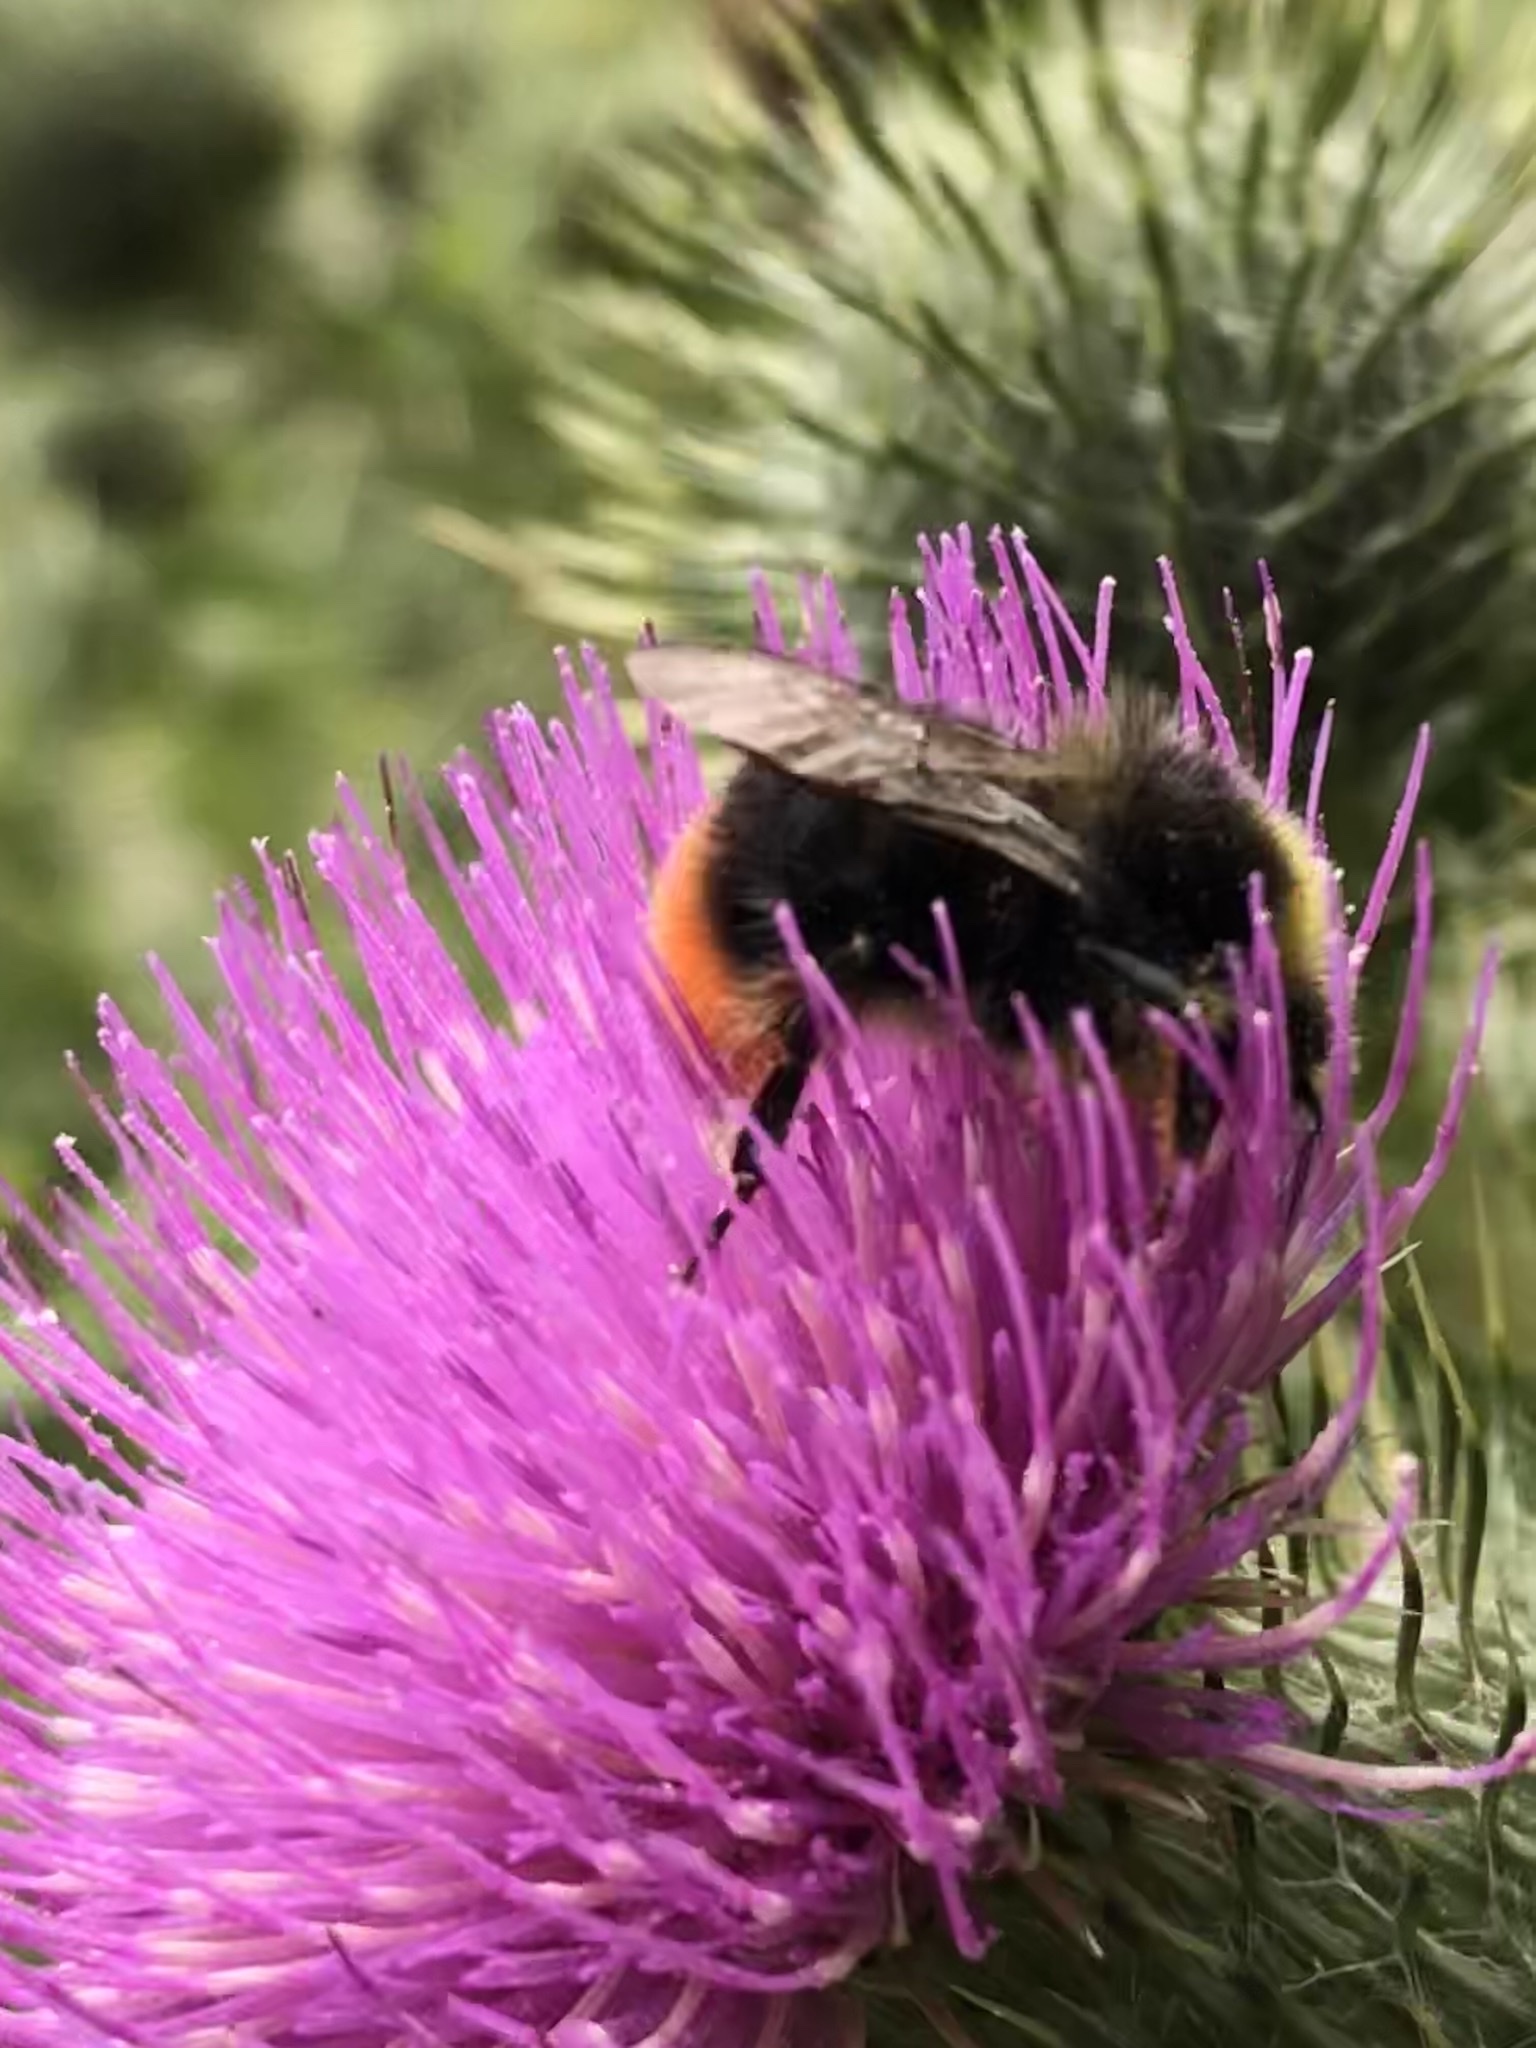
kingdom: Animalia
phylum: Arthropoda
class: Insecta
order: Hymenoptera
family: Apidae
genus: Bombus
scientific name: Bombus lapidarius
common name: Large red-tailed humble-bee
